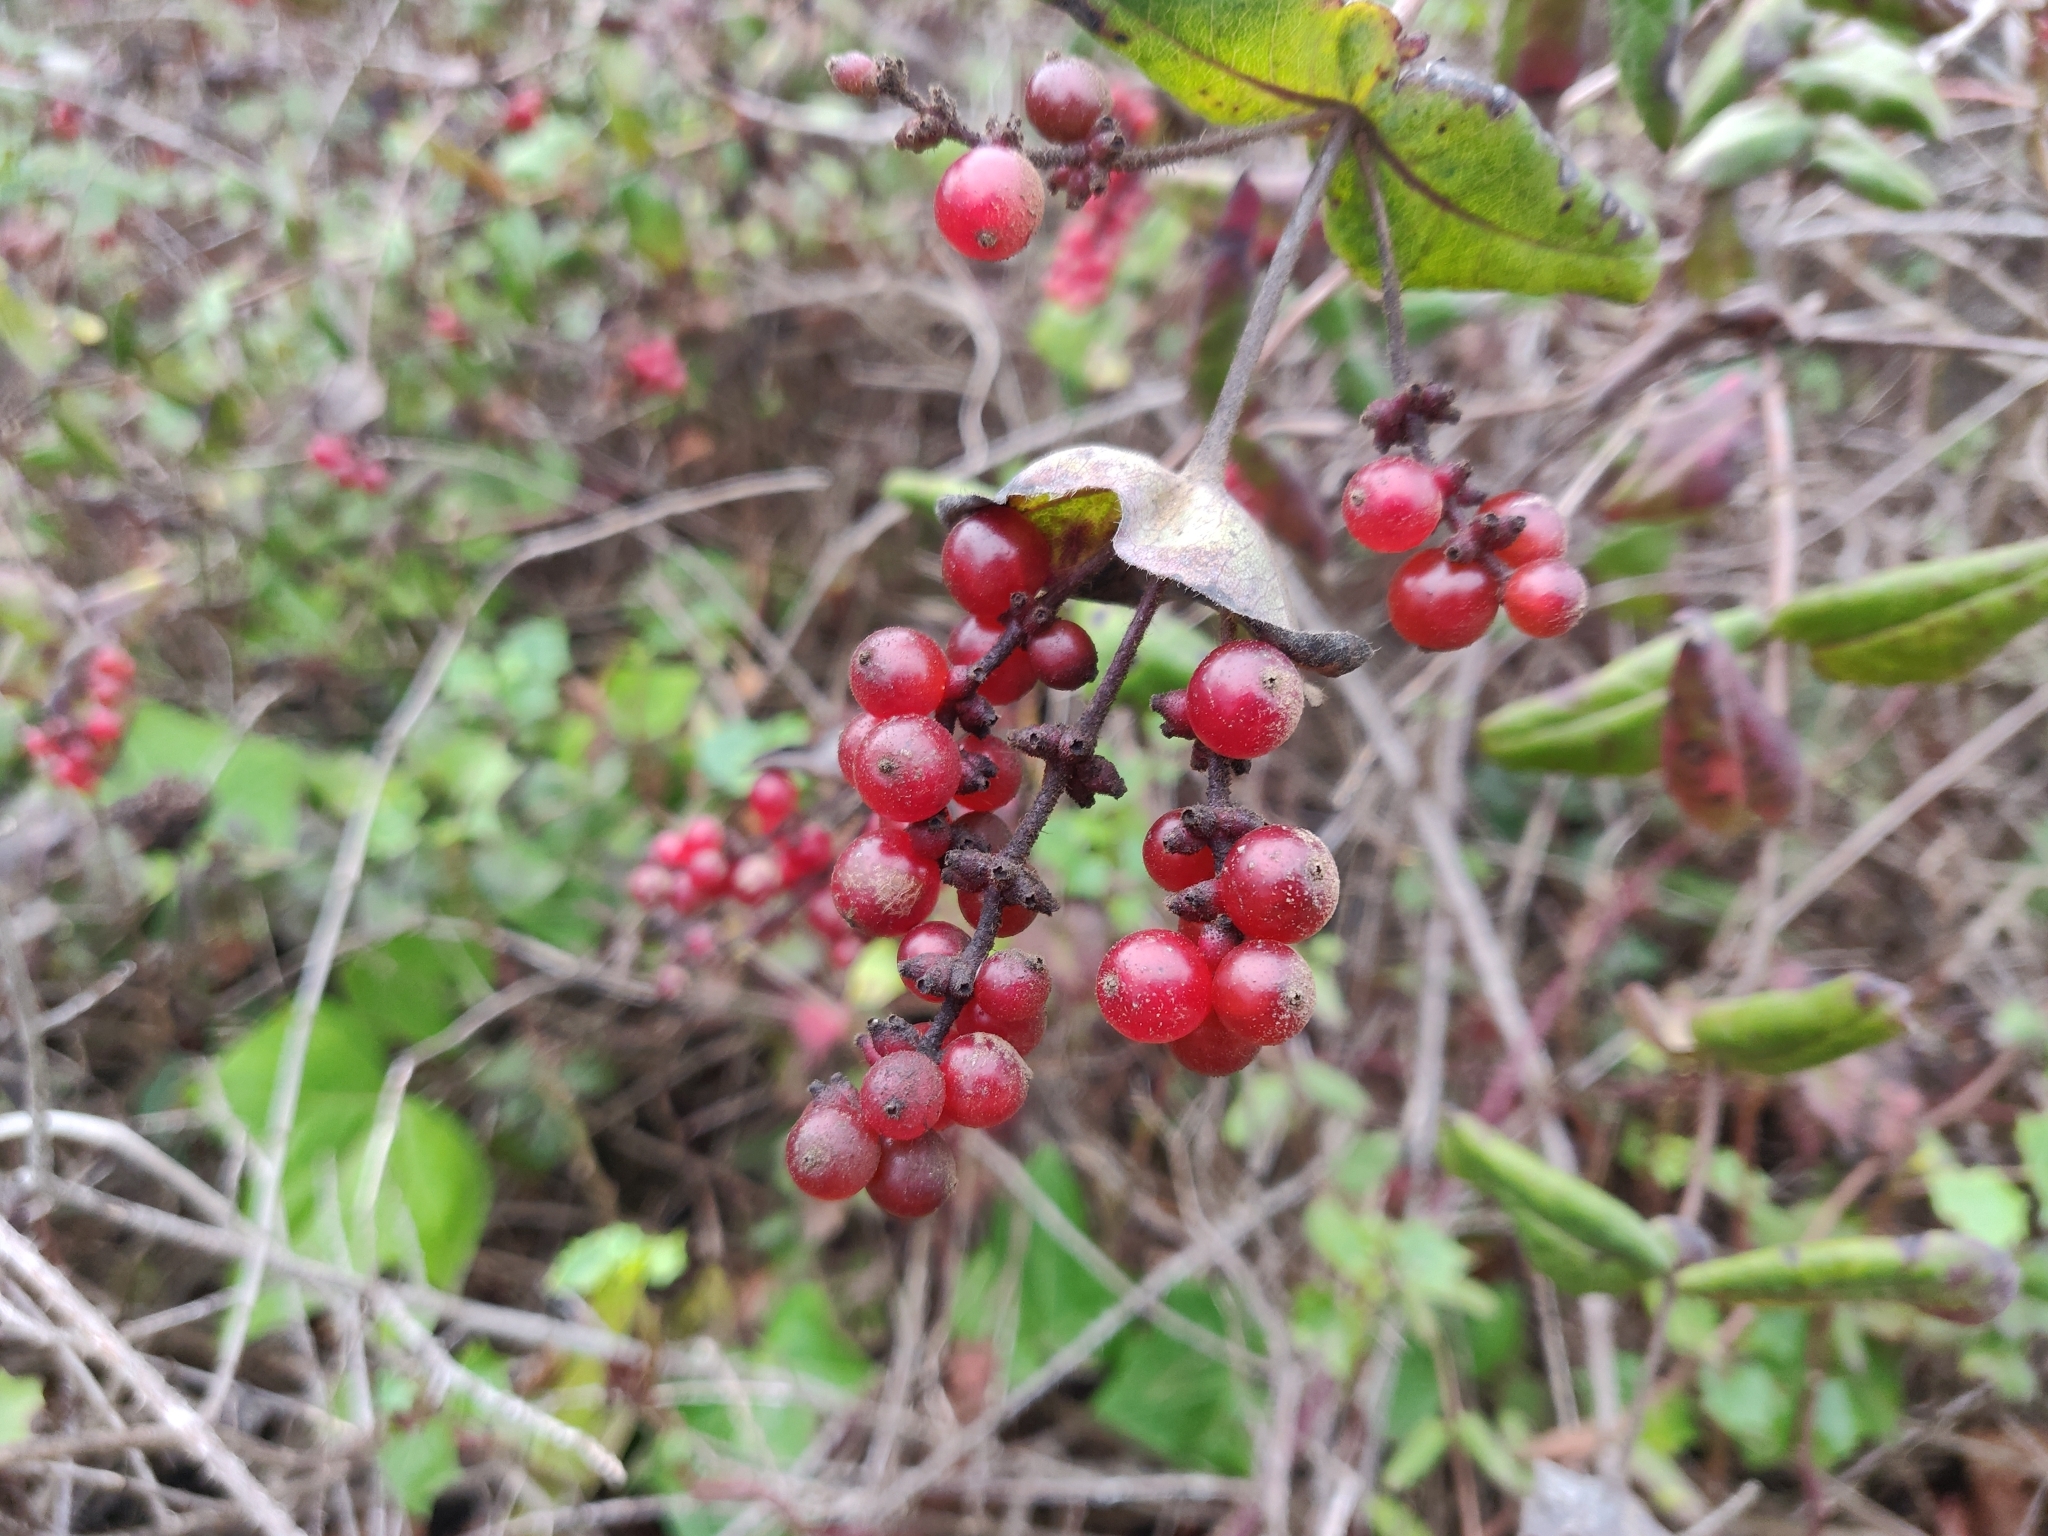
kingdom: Plantae
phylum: Tracheophyta
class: Magnoliopsida
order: Dipsacales
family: Caprifoliaceae
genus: Lonicera
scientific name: Lonicera hispidula
